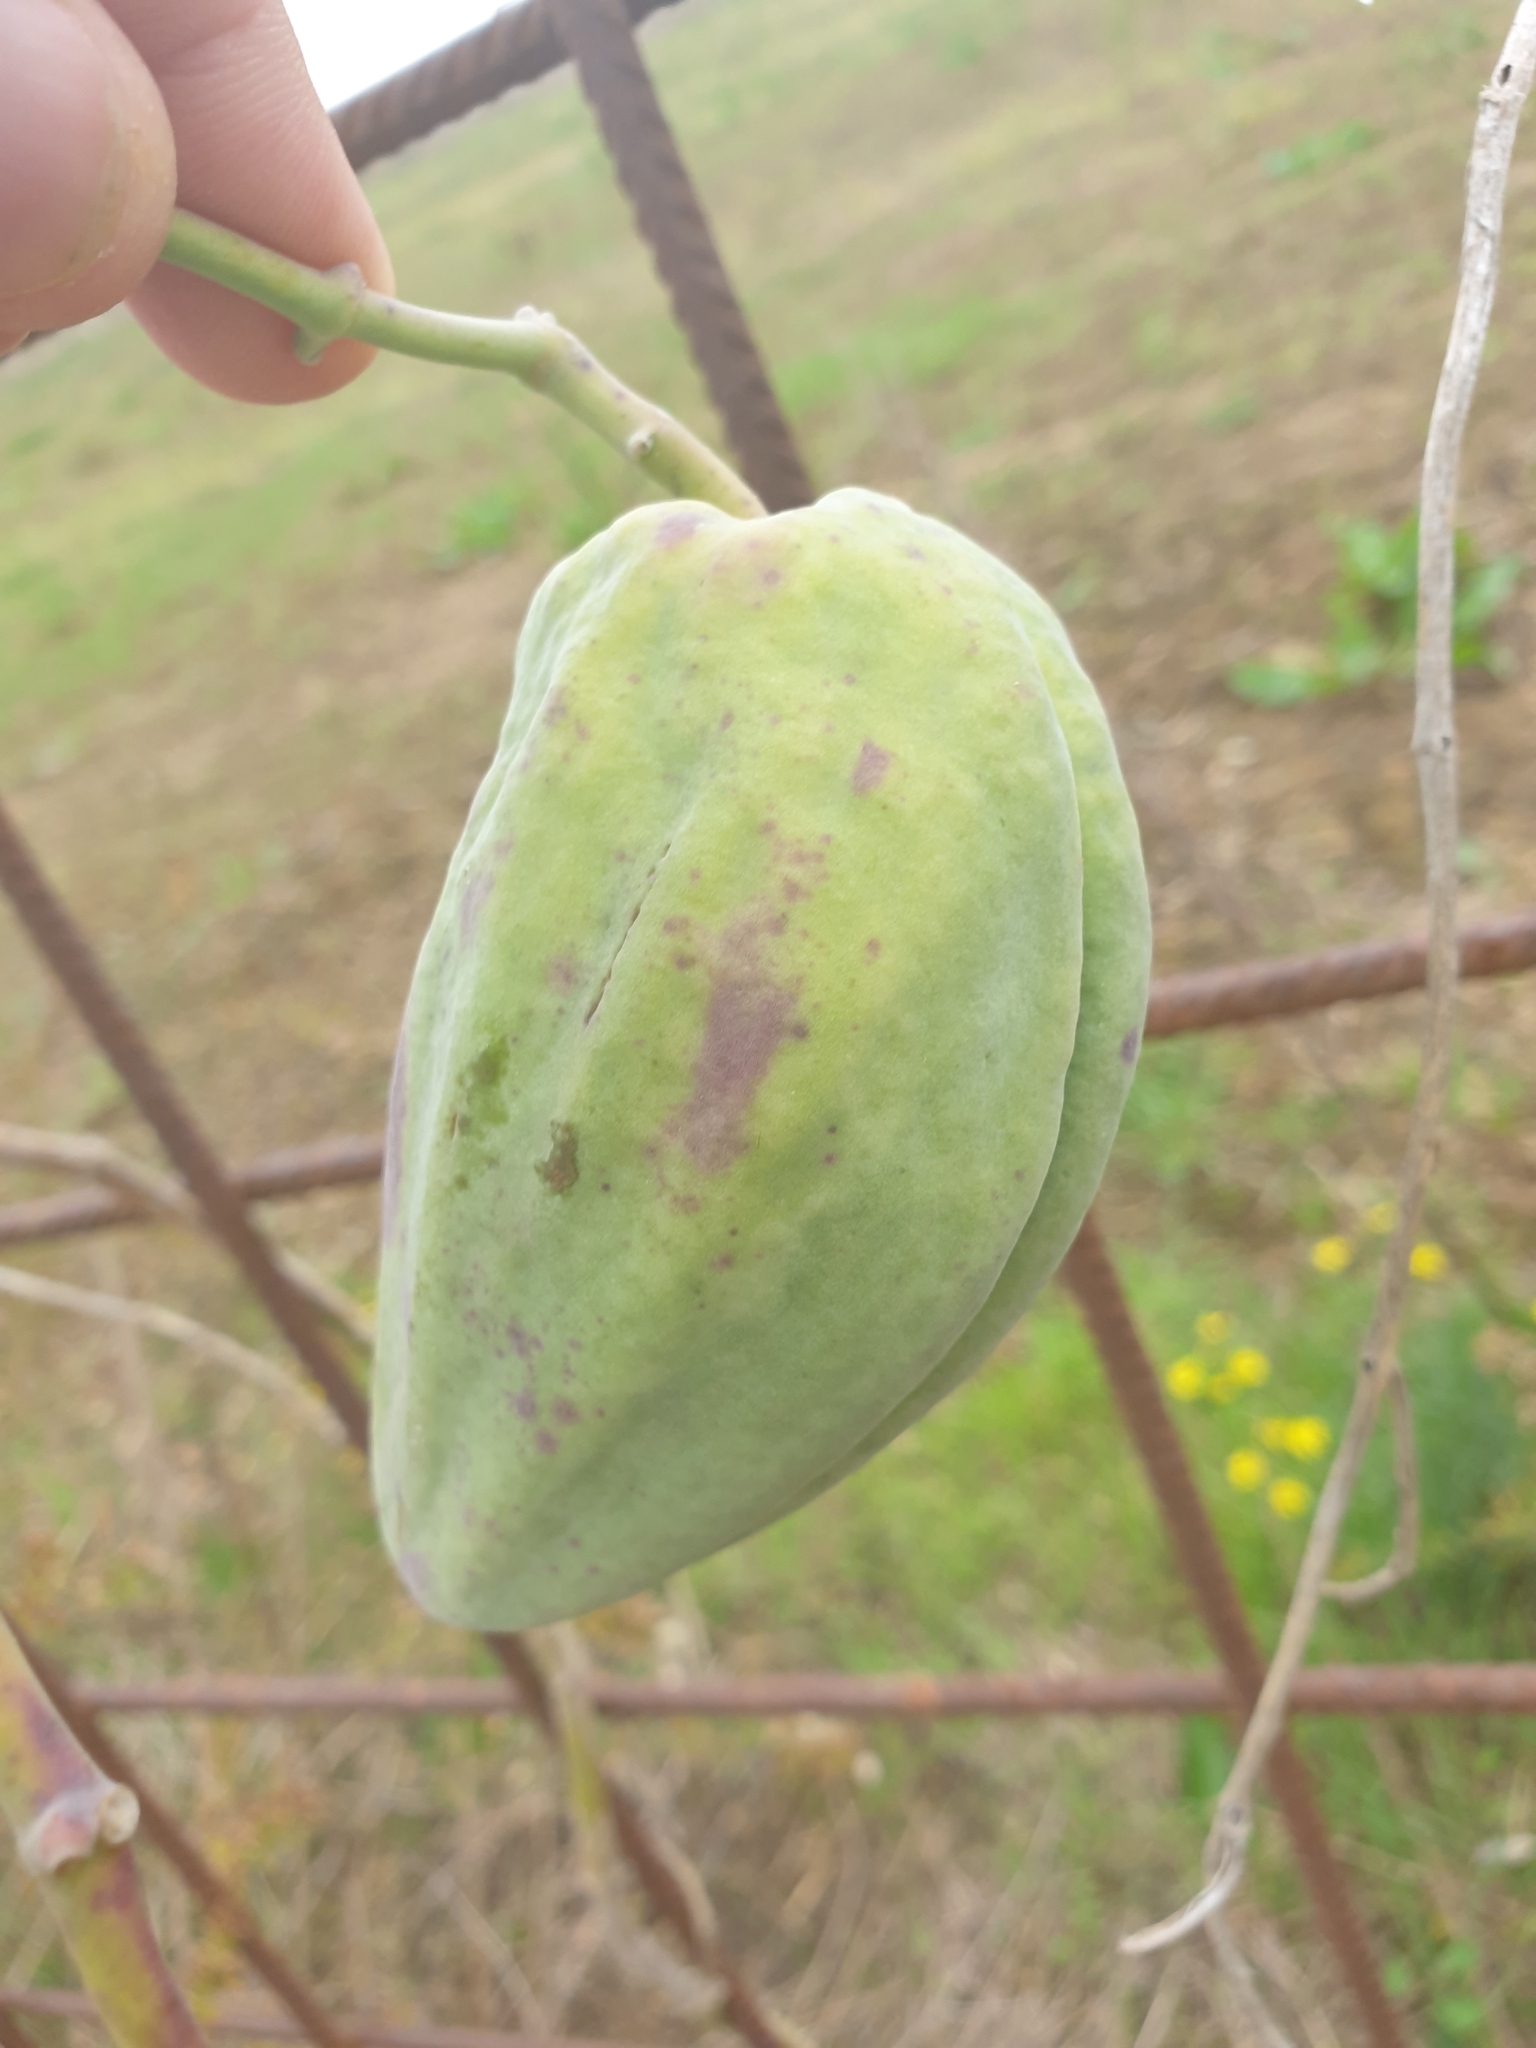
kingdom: Plantae
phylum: Tracheophyta
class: Magnoliopsida
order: Gentianales
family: Apocynaceae
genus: Araujia
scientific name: Araujia sericifera
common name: White bladderflower
